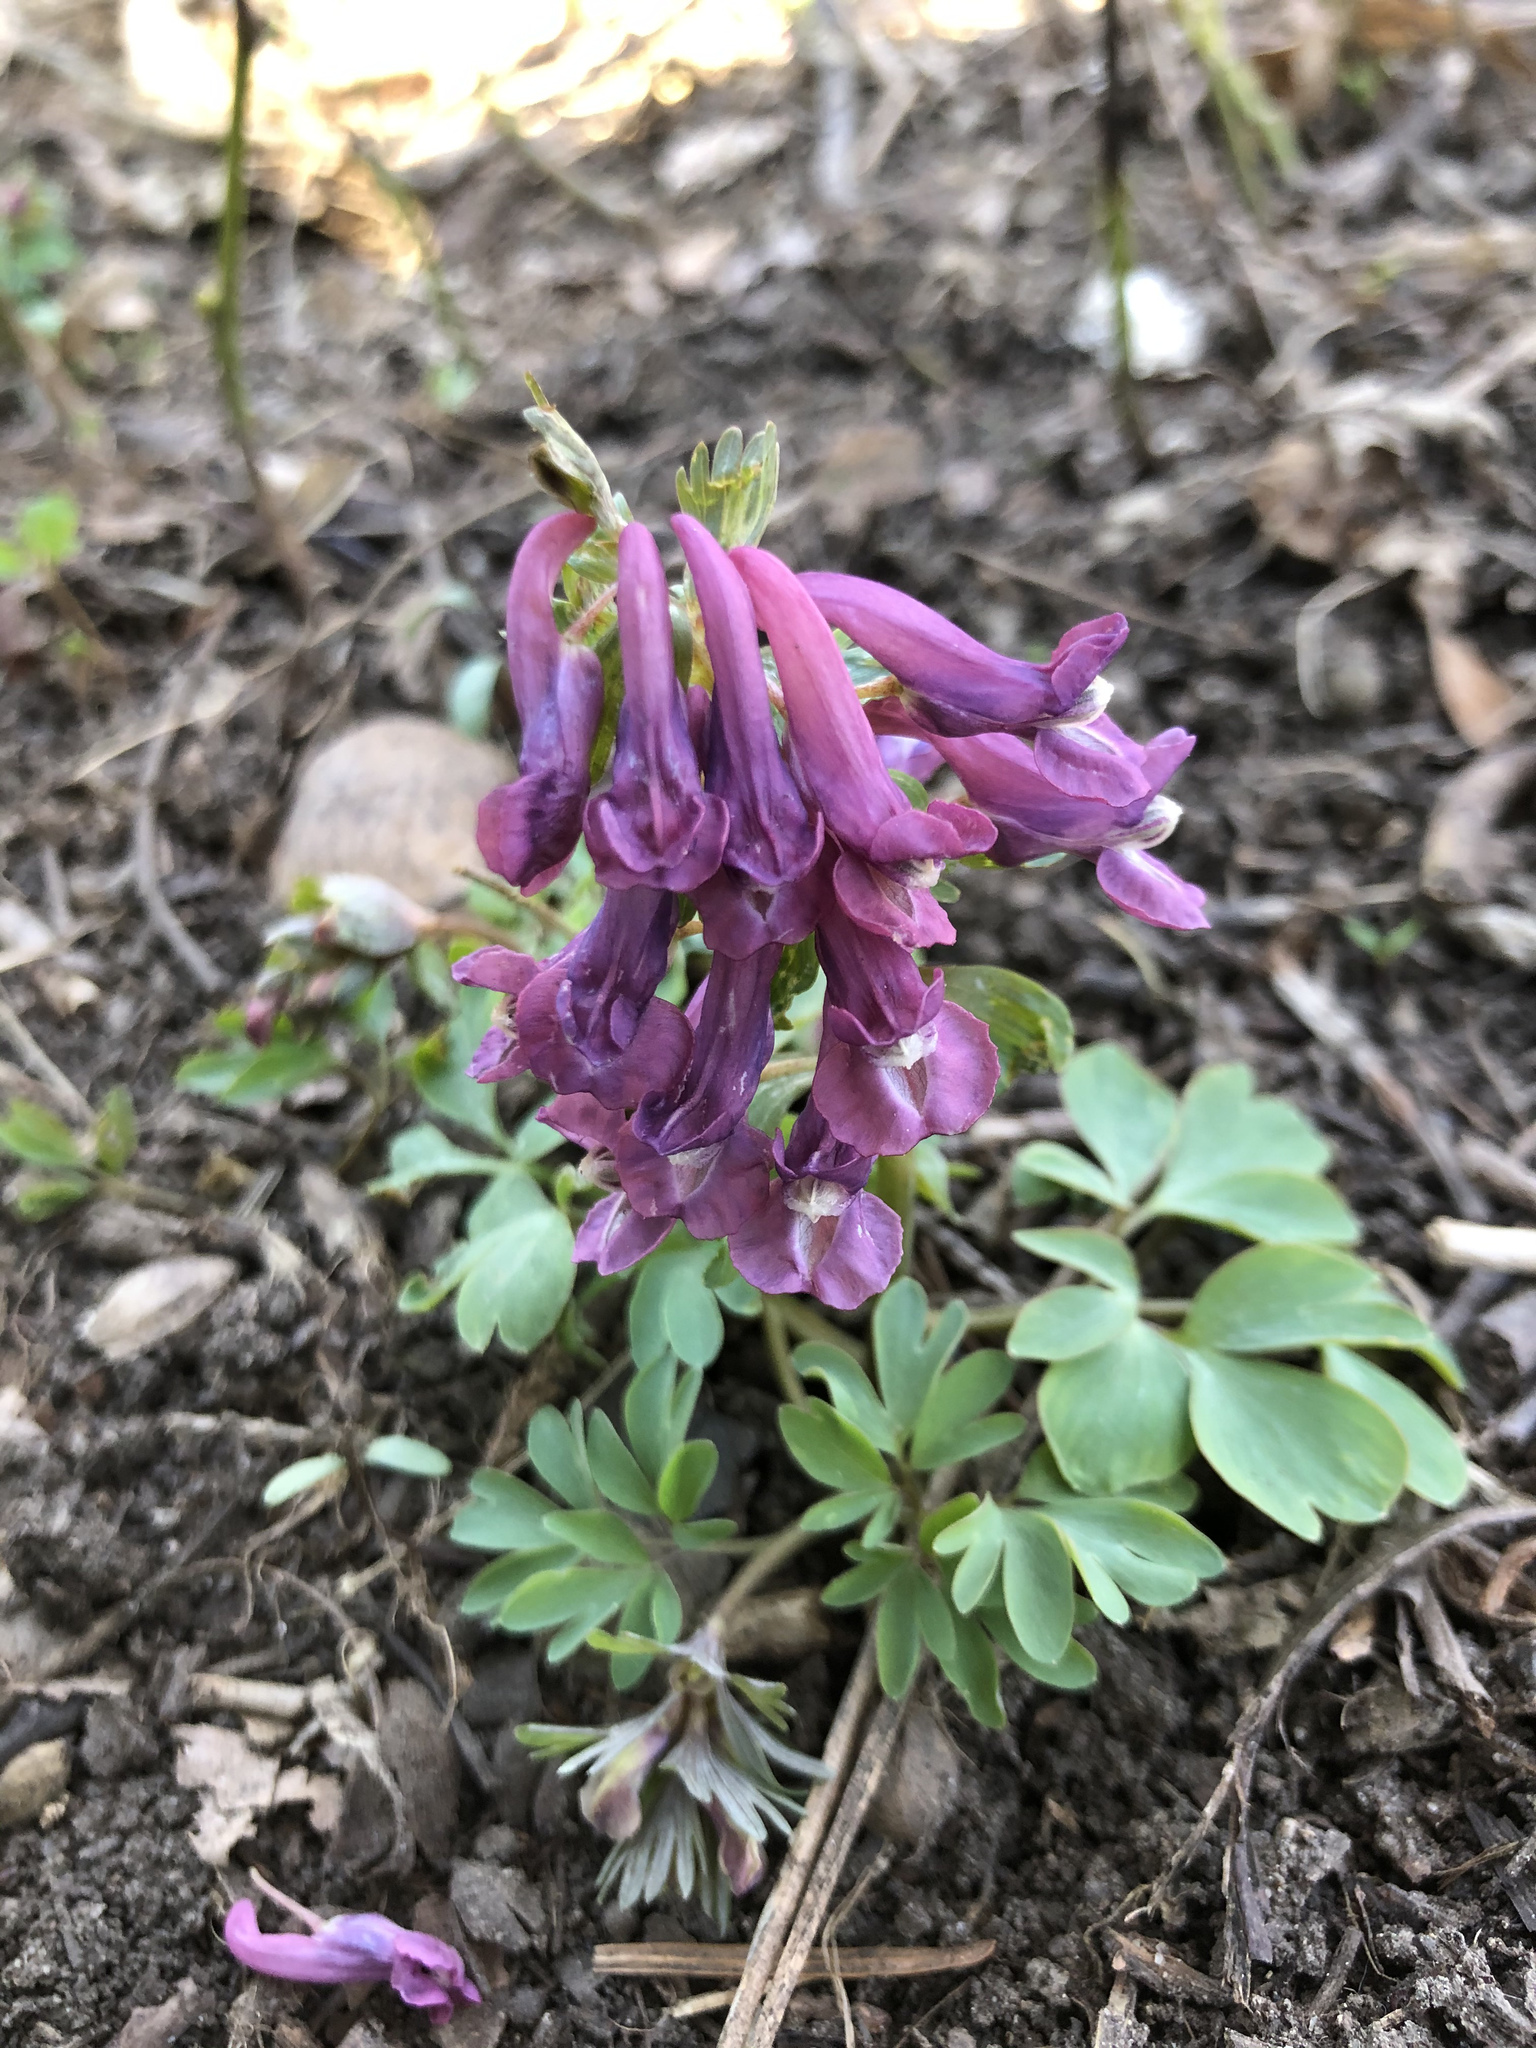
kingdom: Plantae
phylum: Tracheophyta
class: Magnoliopsida
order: Ranunculales
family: Papaveraceae
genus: Corydalis
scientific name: Corydalis solida
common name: Bird-in-a-bush
